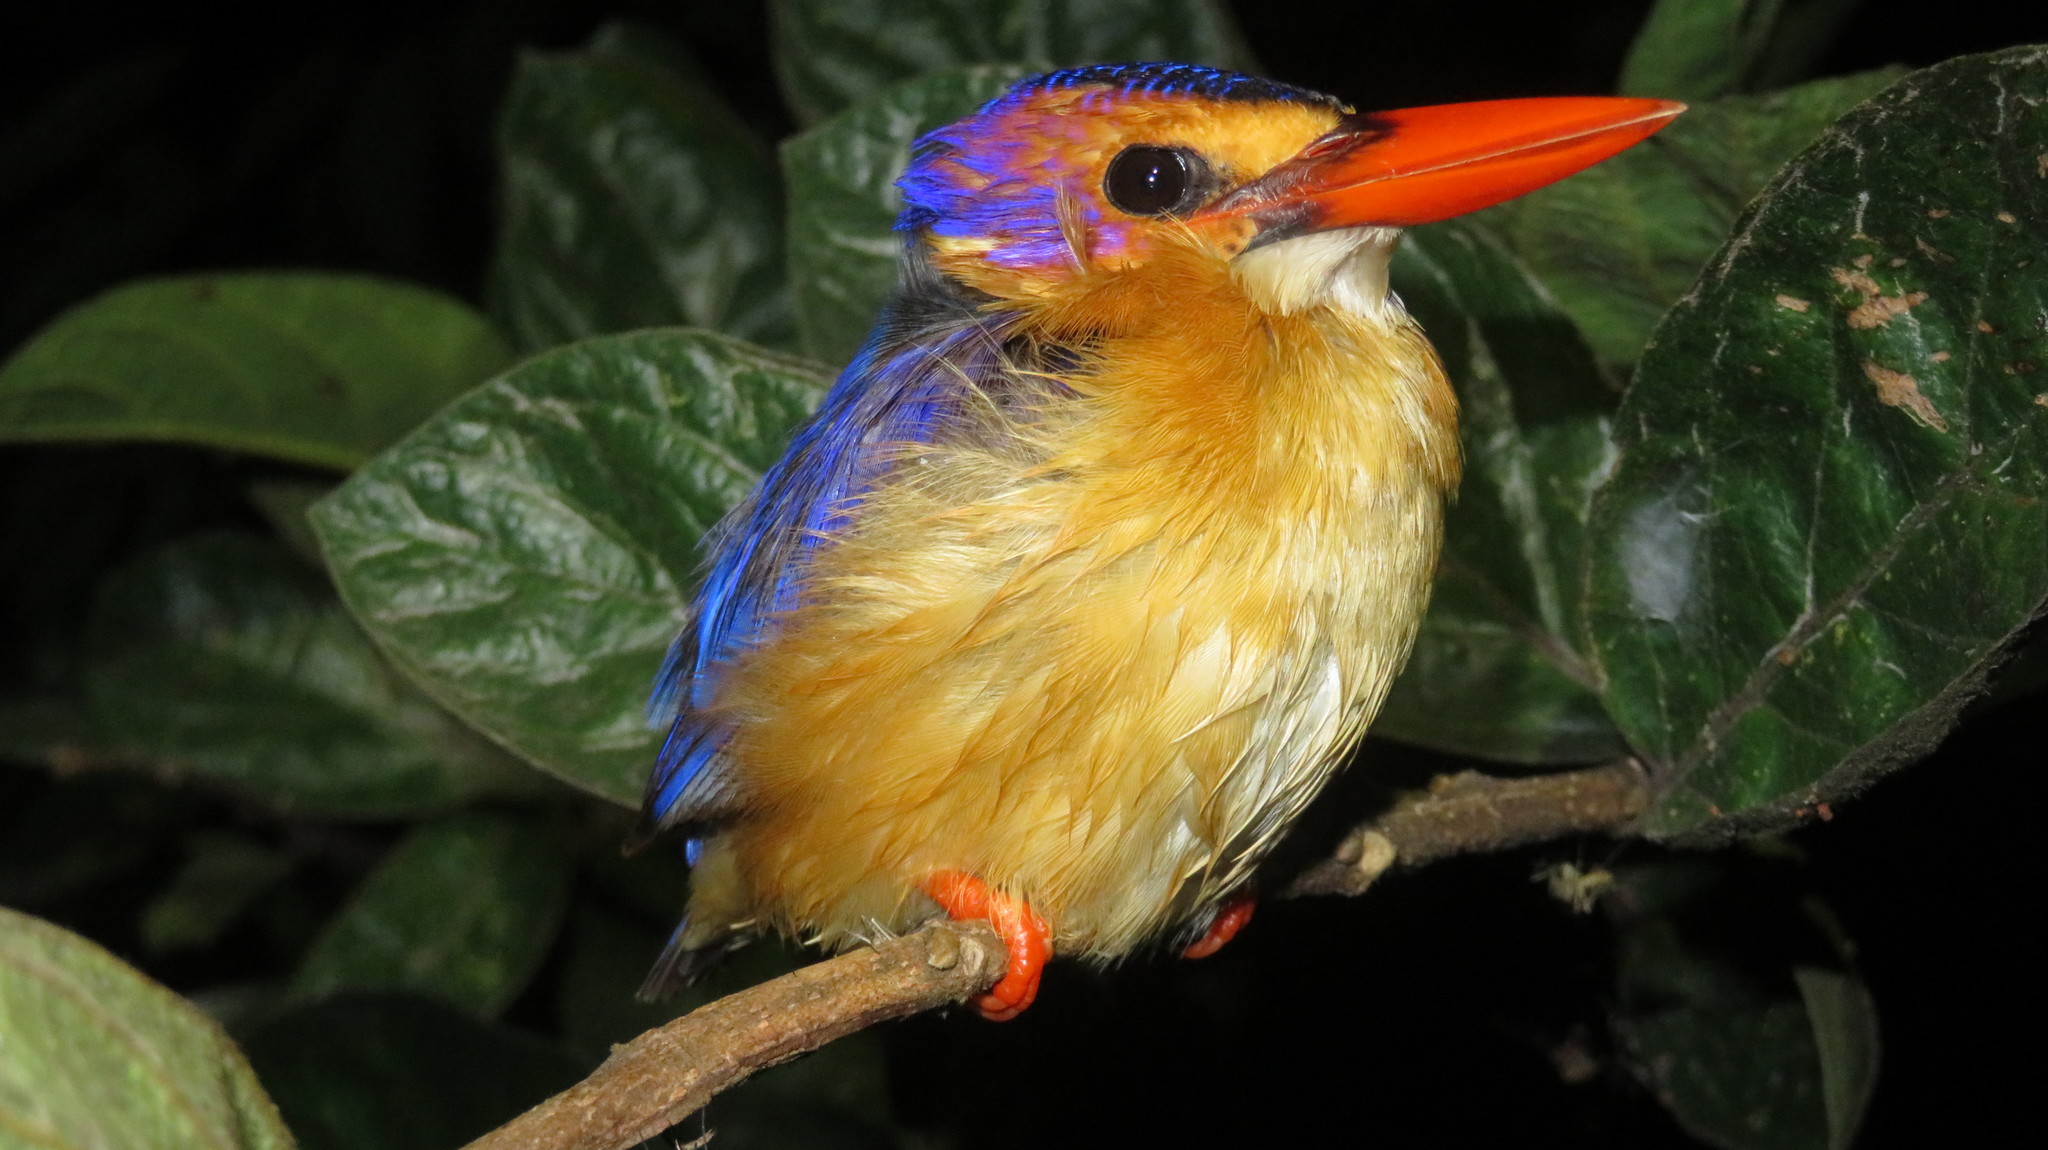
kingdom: Animalia
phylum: Chordata
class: Aves
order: Coraciiformes
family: Alcedinidae
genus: Ispidina
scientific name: Ispidina picta
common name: African pygmy-kingfisher
